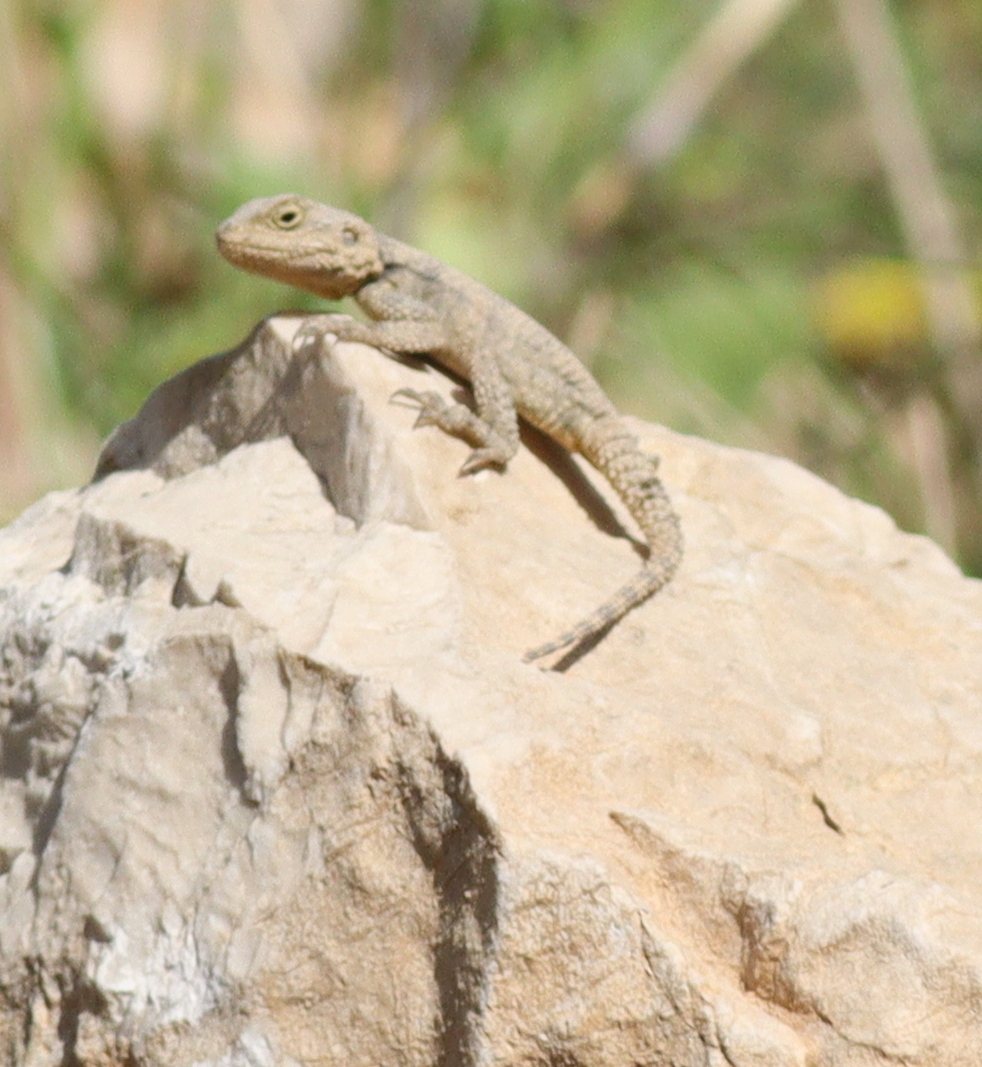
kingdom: Animalia
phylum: Chordata
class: Squamata
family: Agamidae
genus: Stellagama
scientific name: Stellagama stellio
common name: Starred agama
